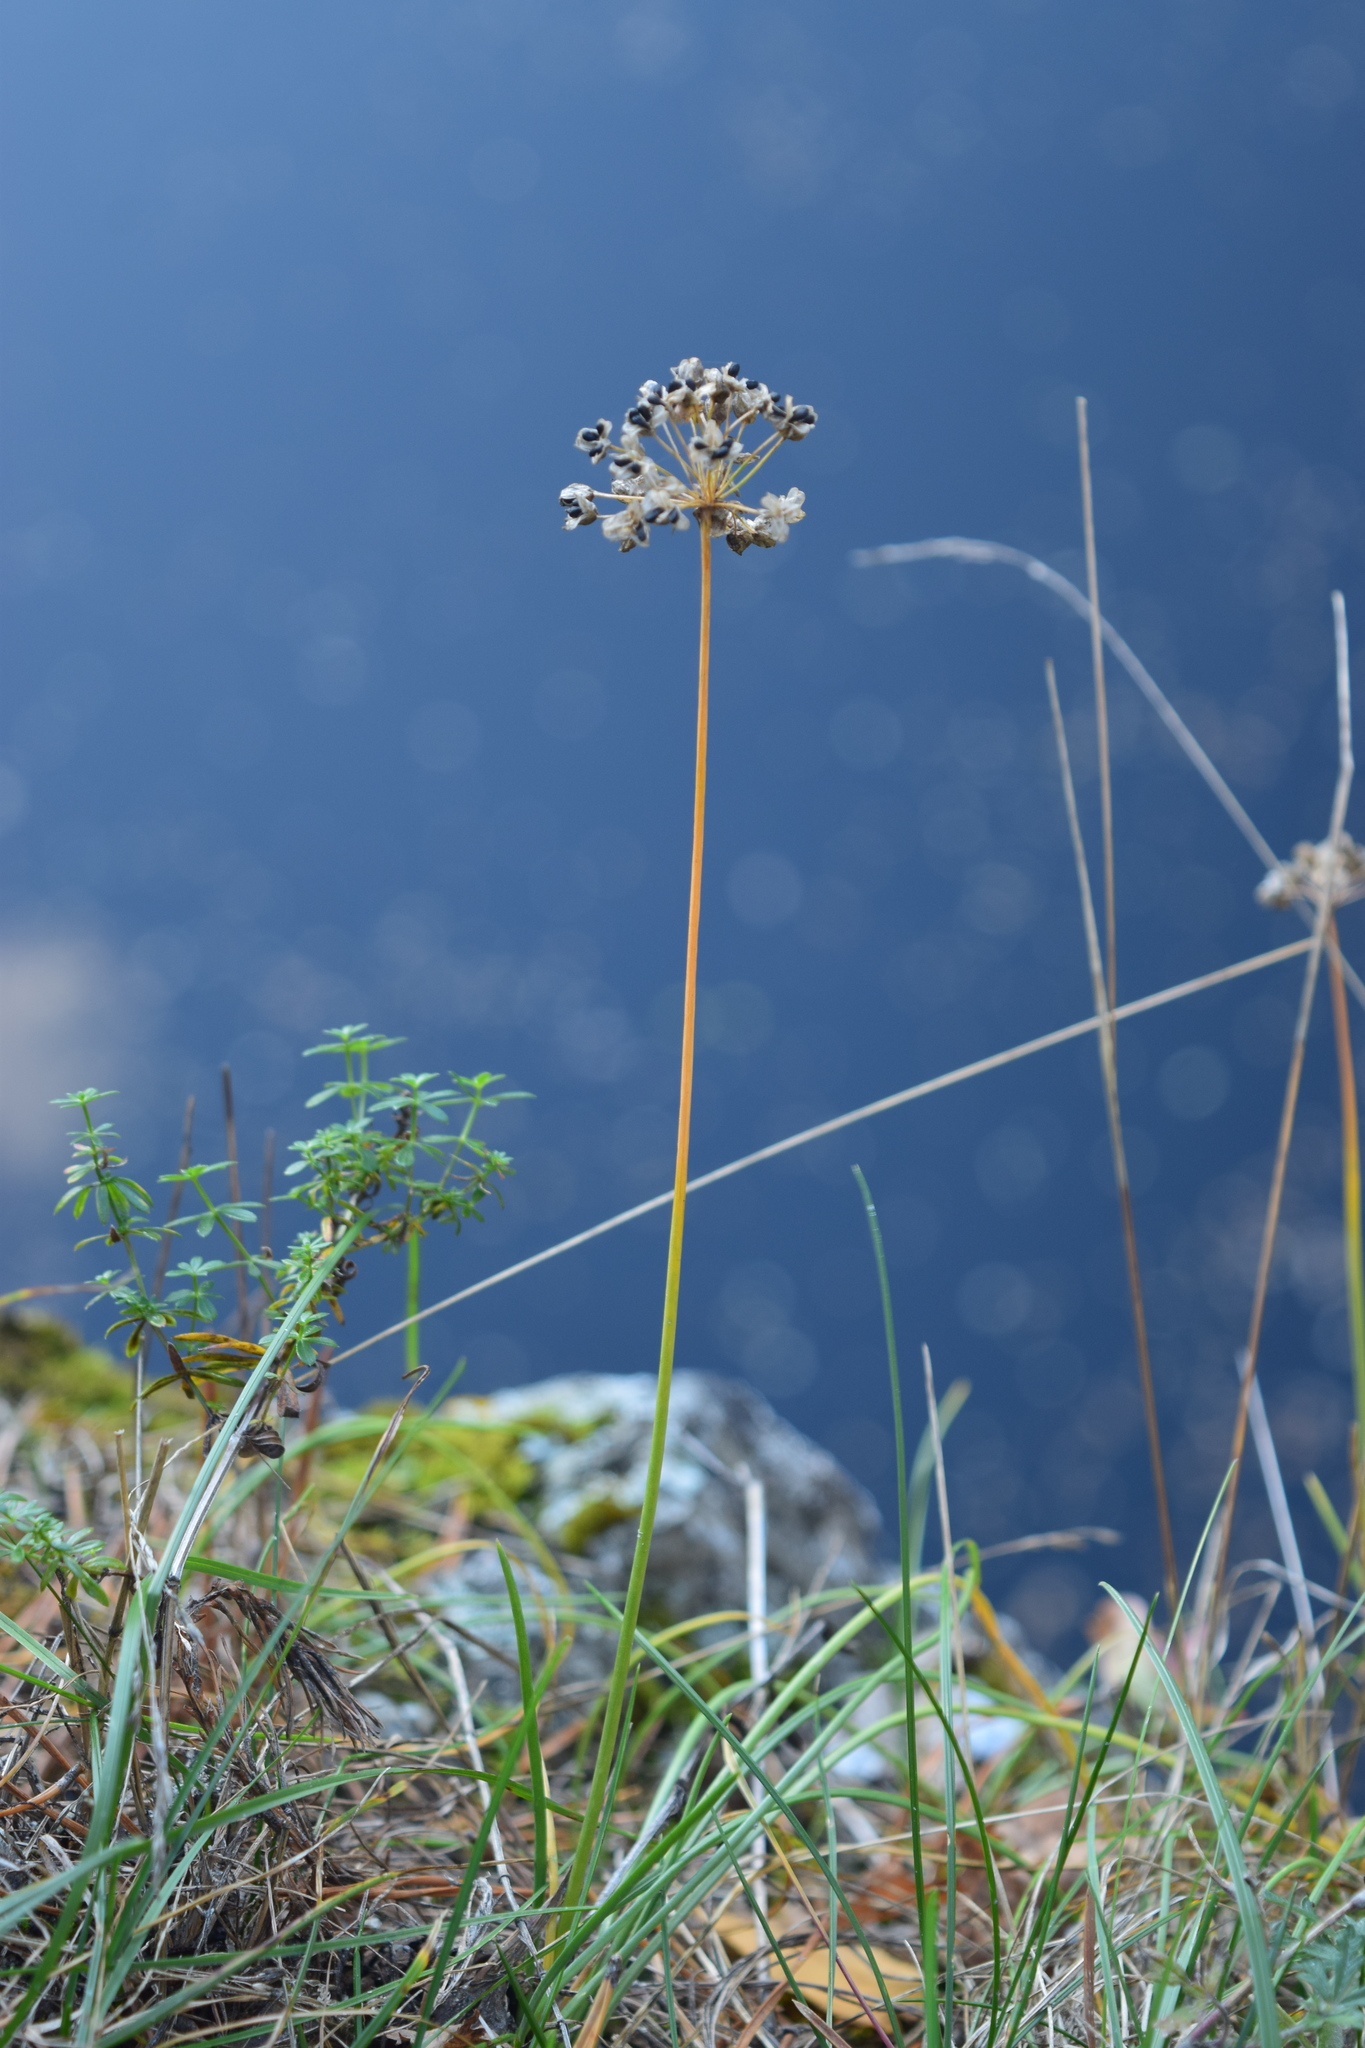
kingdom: Plantae
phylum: Tracheophyta
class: Liliopsida
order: Asparagales
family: Amaryllidaceae
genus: Allium
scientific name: Allium rubens
